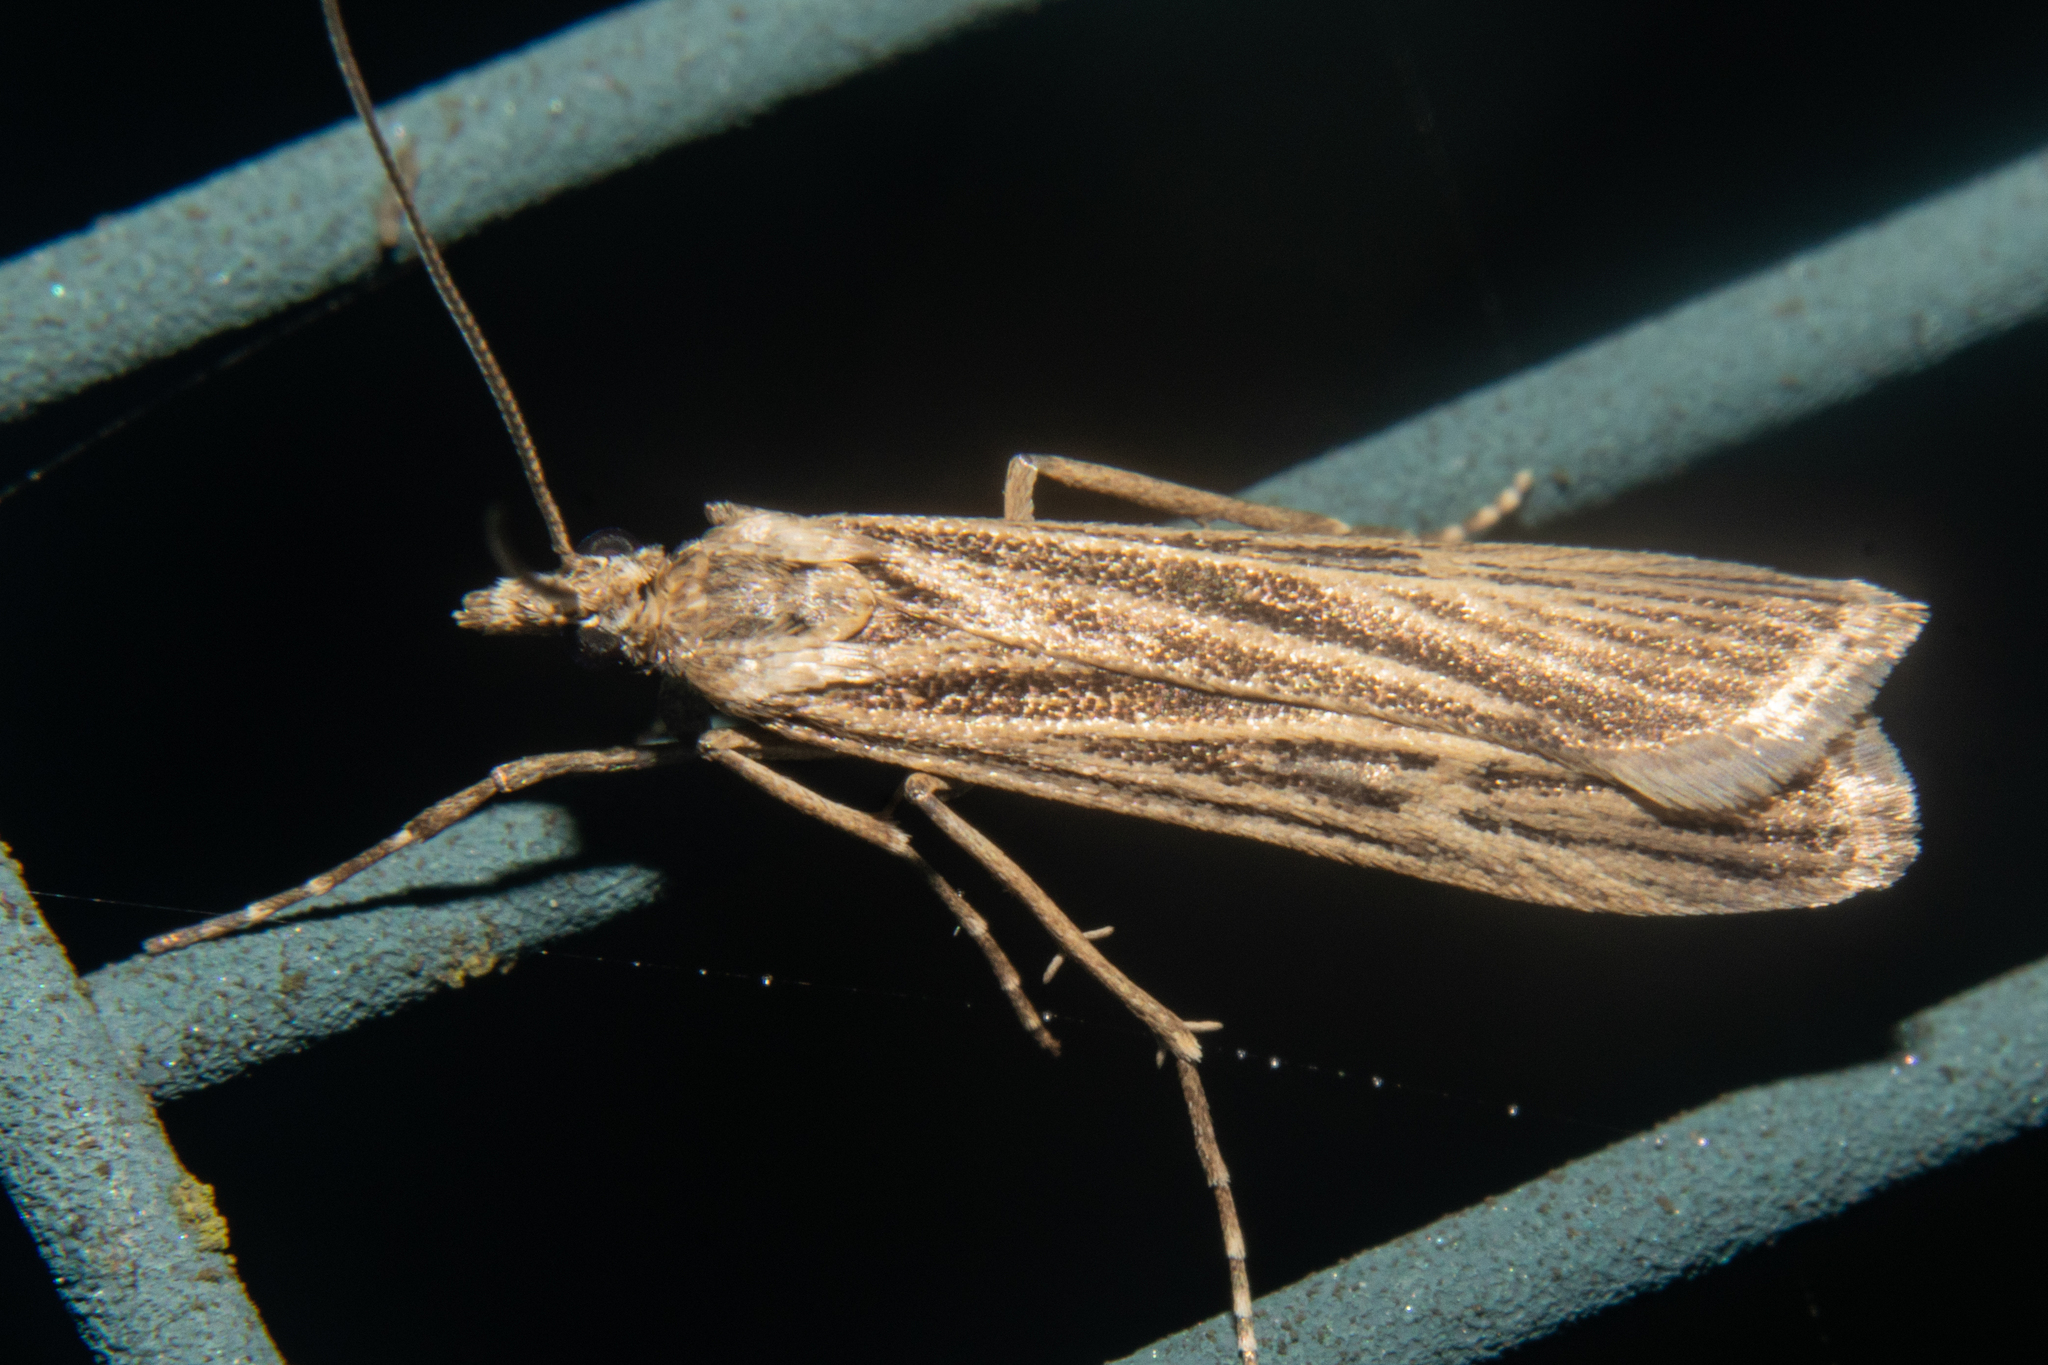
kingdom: Animalia
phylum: Arthropoda
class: Insecta
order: Lepidoptera
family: Crambidae
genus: Eudonia
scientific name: Eudonia atmogramma
